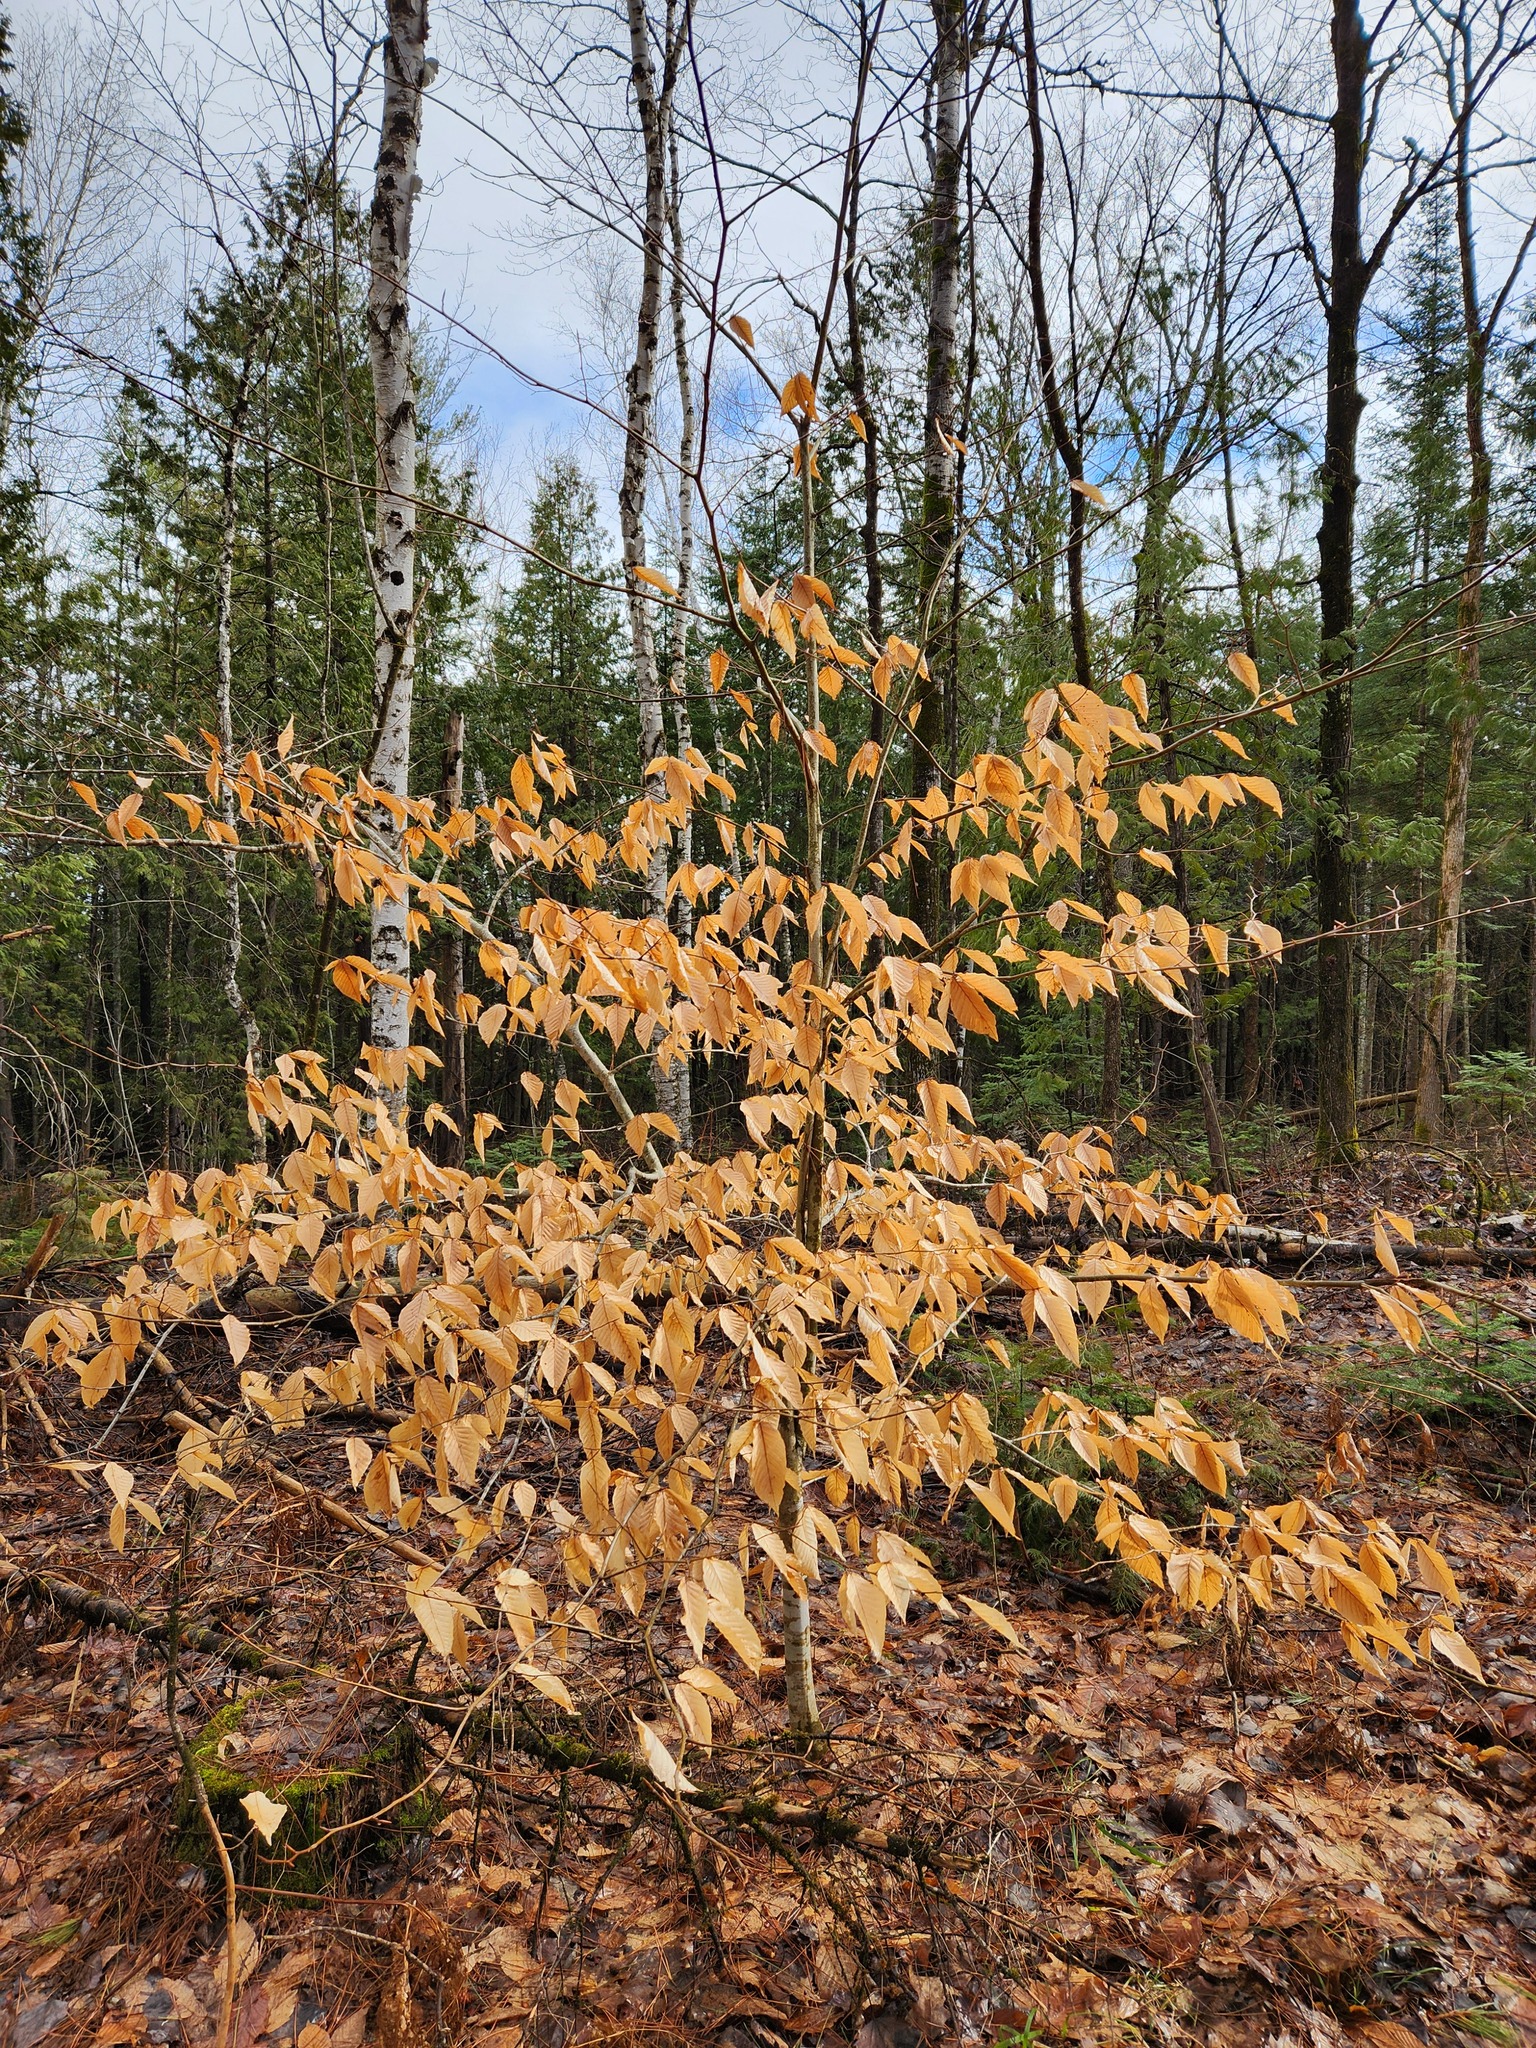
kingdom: Plantae
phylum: Tracheophyta
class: Magnoliopsida
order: Fagales
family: Fagaceae
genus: Fagus
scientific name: Fagus grandifolia
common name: American beech
